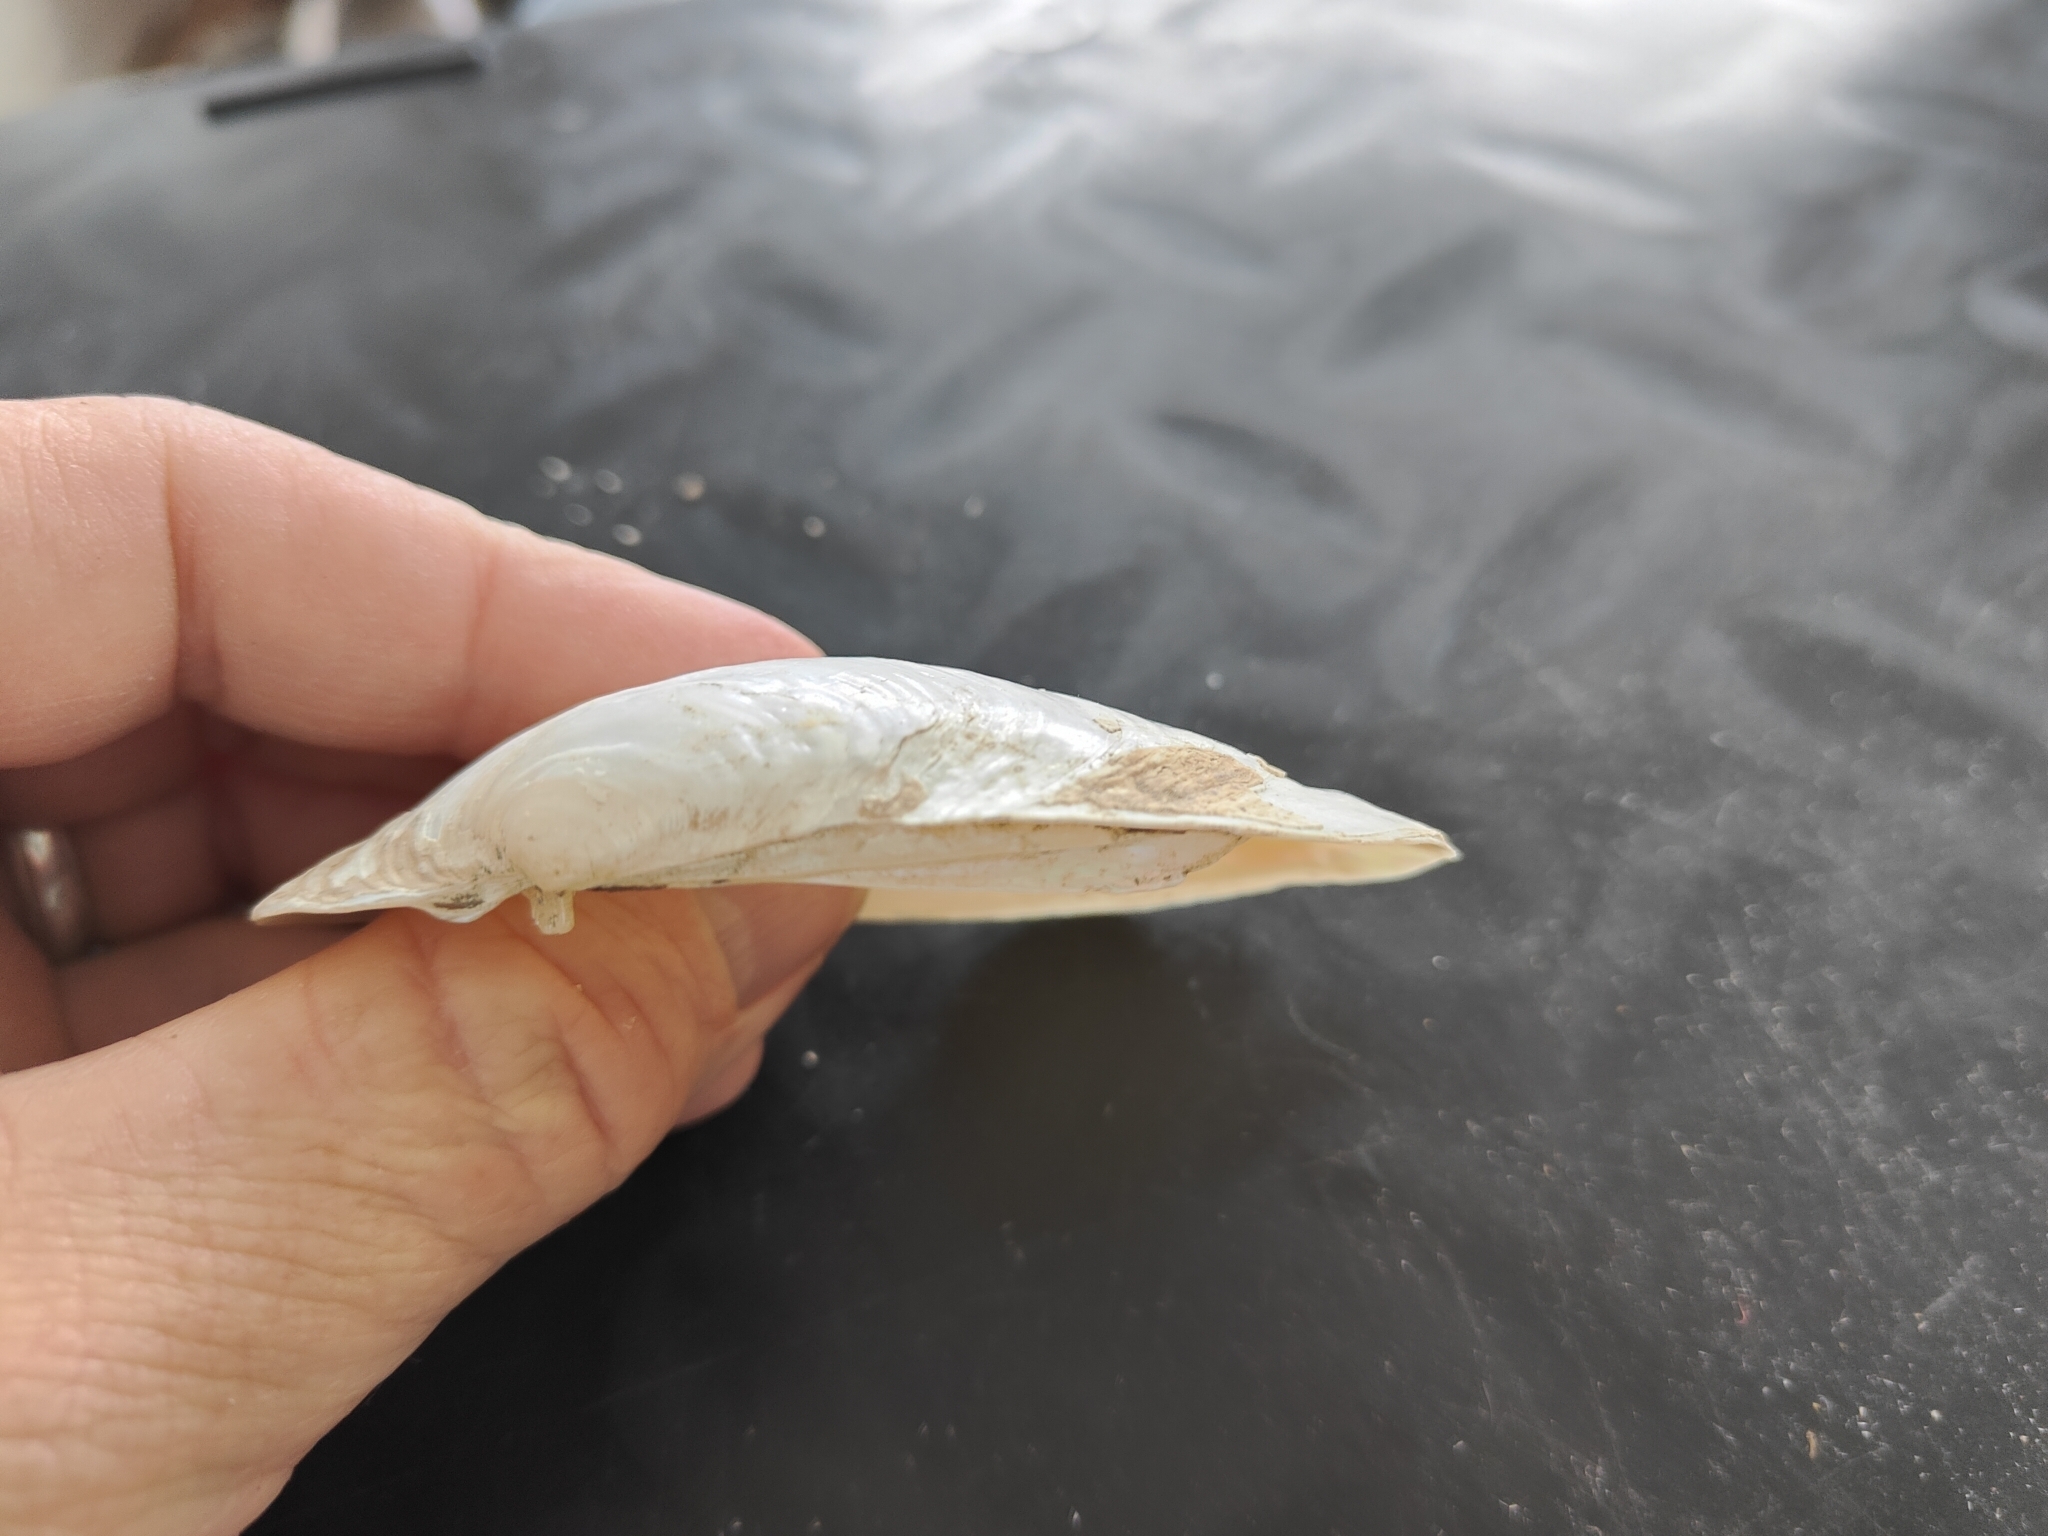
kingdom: Animalia
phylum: Mollusca
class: Bivalvia
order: Unionida
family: Unionidae
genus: Lampsilis
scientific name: Lampsilis siliquoidea
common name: Fatmucket
